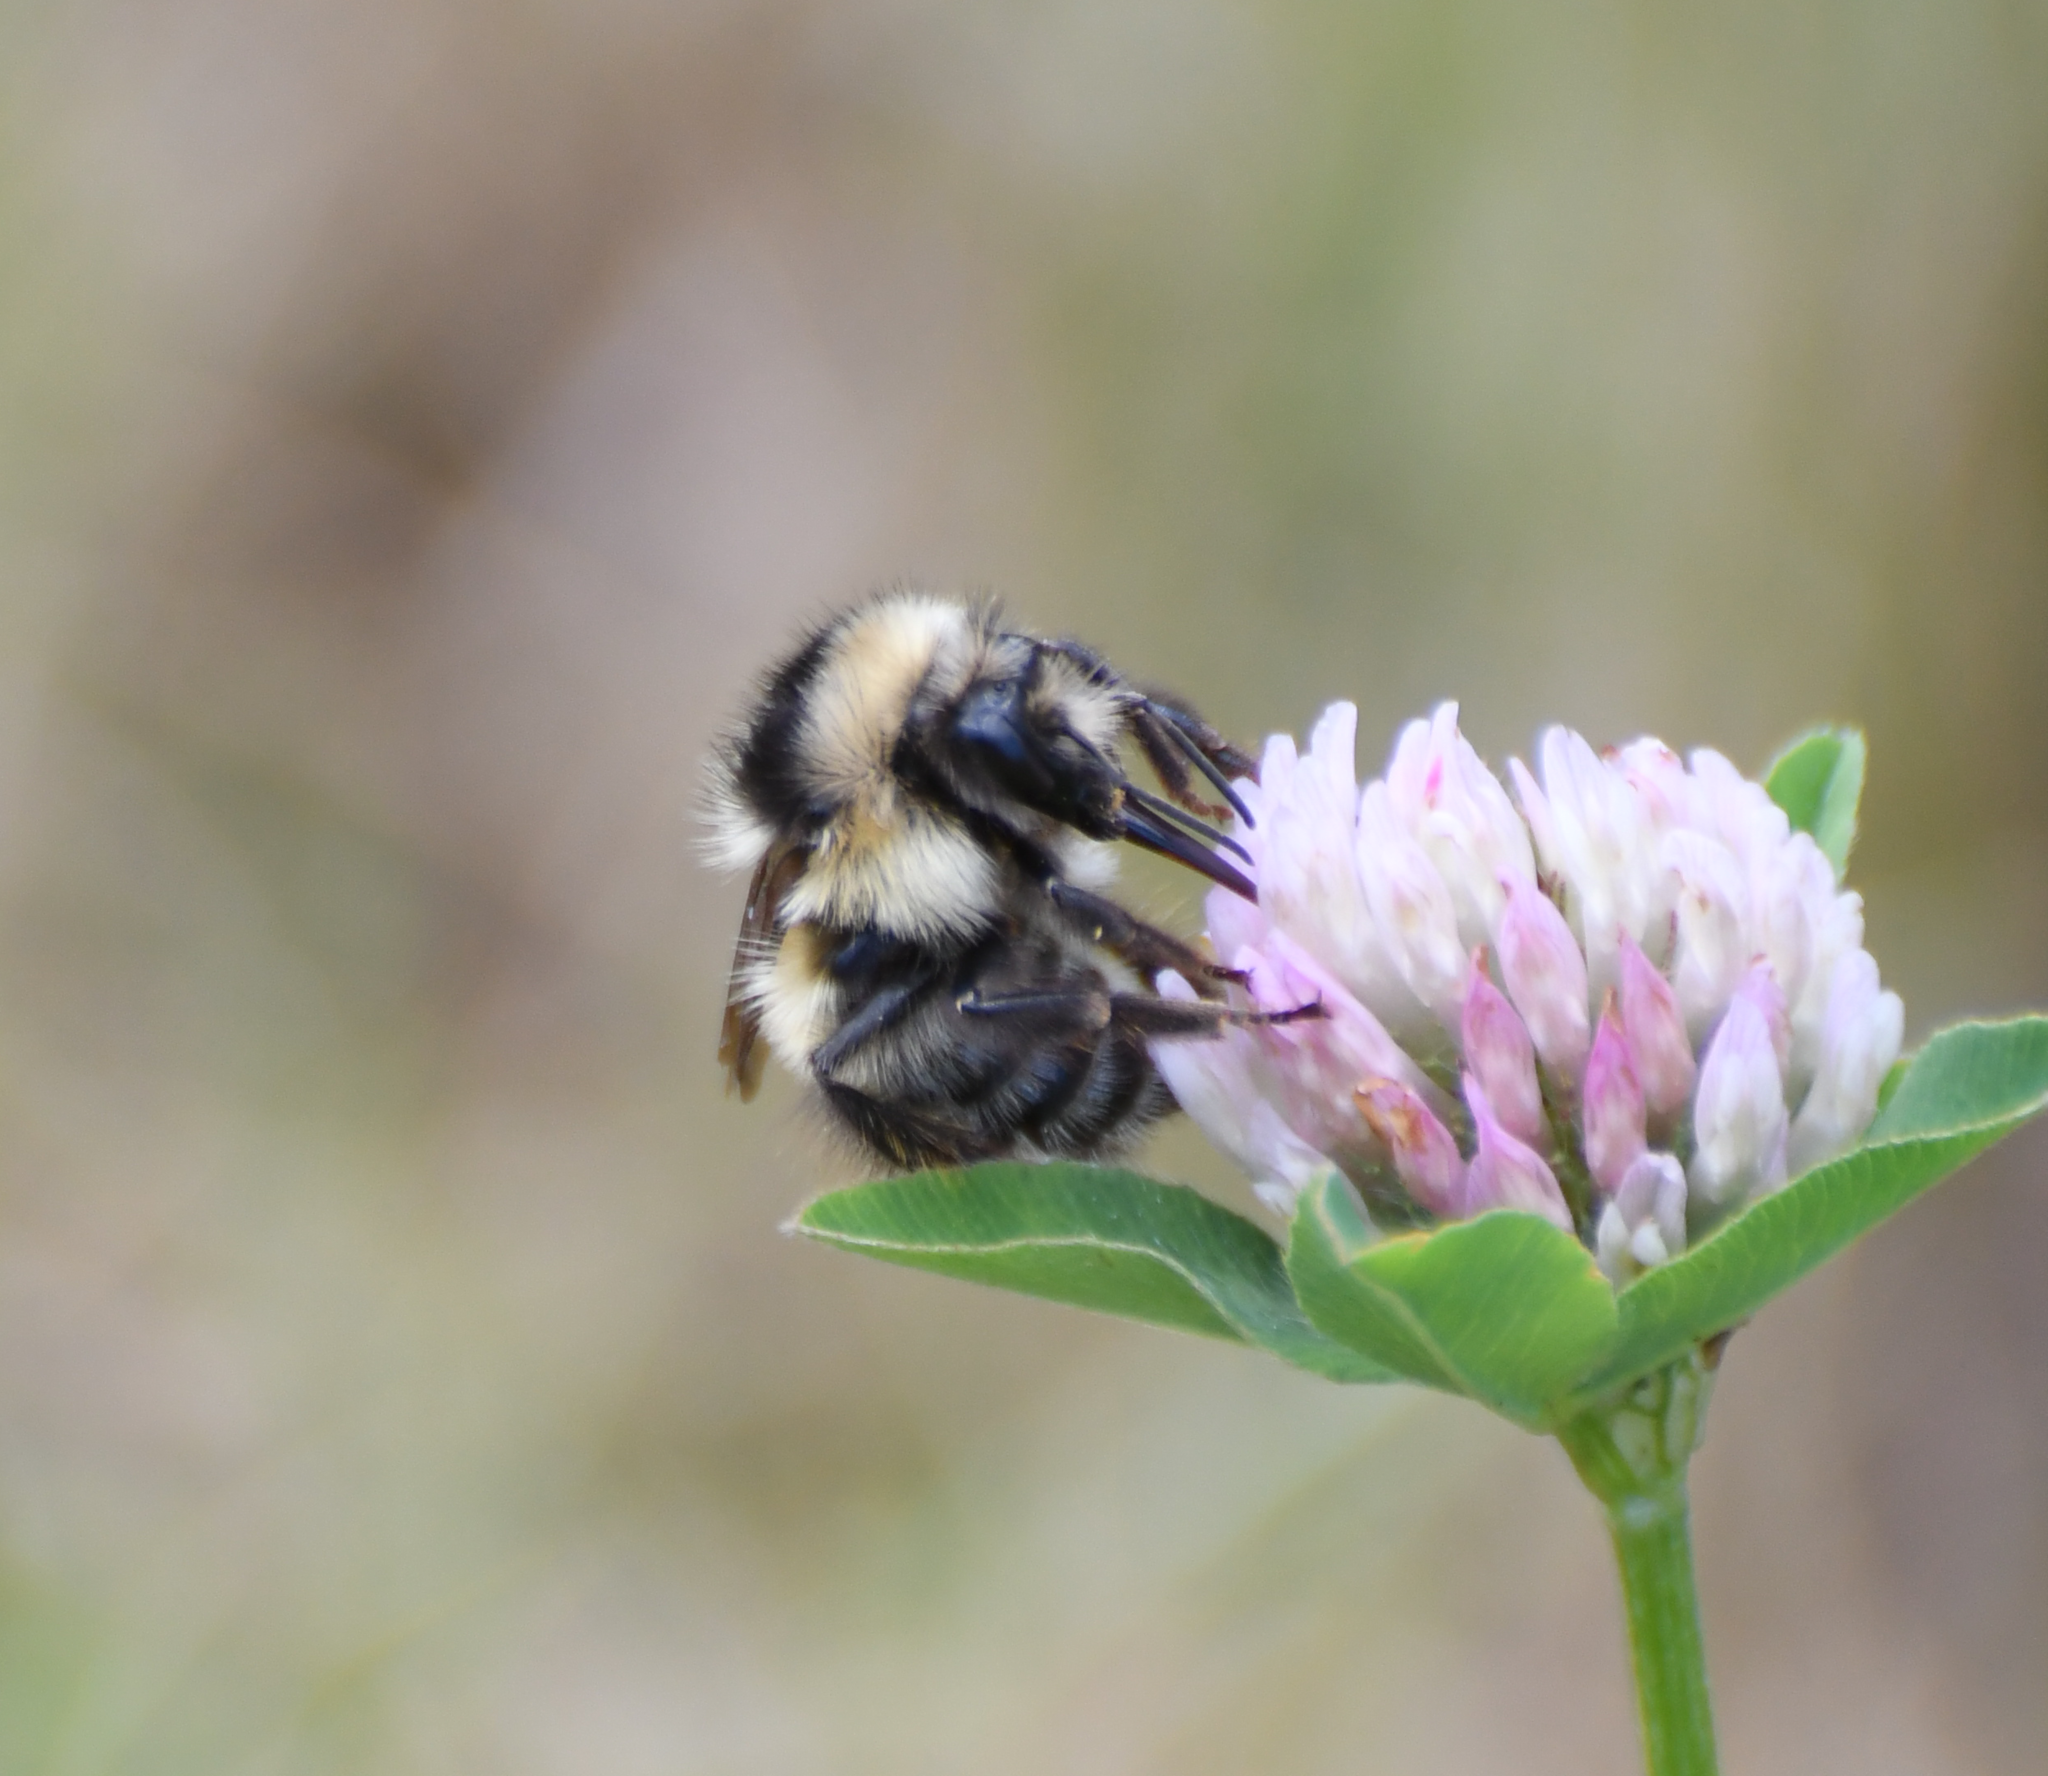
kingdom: Animalia
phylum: Arthropoda
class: Insecta
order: Hymenoptera
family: Apidae
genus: Bombus
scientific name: Bombus flavifrons
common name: Yellow head bumble bee
